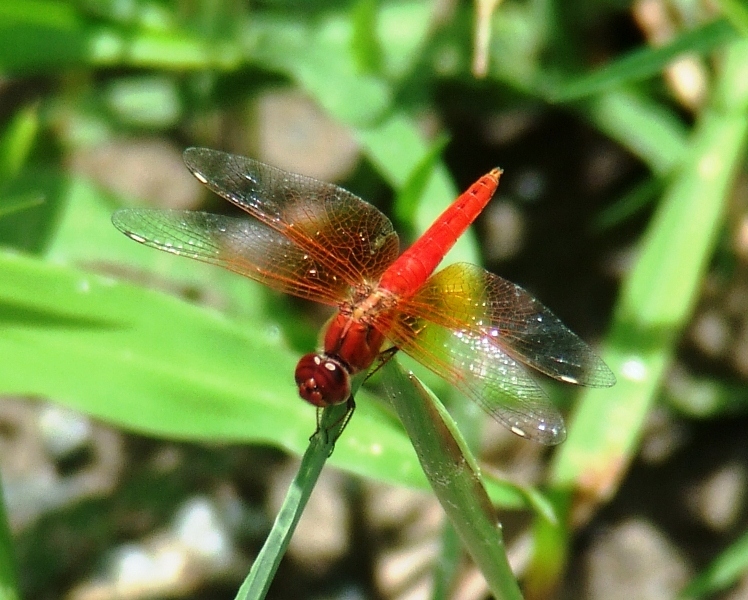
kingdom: Animalia
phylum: Arthropoda
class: Insecta
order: Odonata
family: Libellulidae
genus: Brachythemis
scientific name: Brachythemis lacustris
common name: Red groundling
